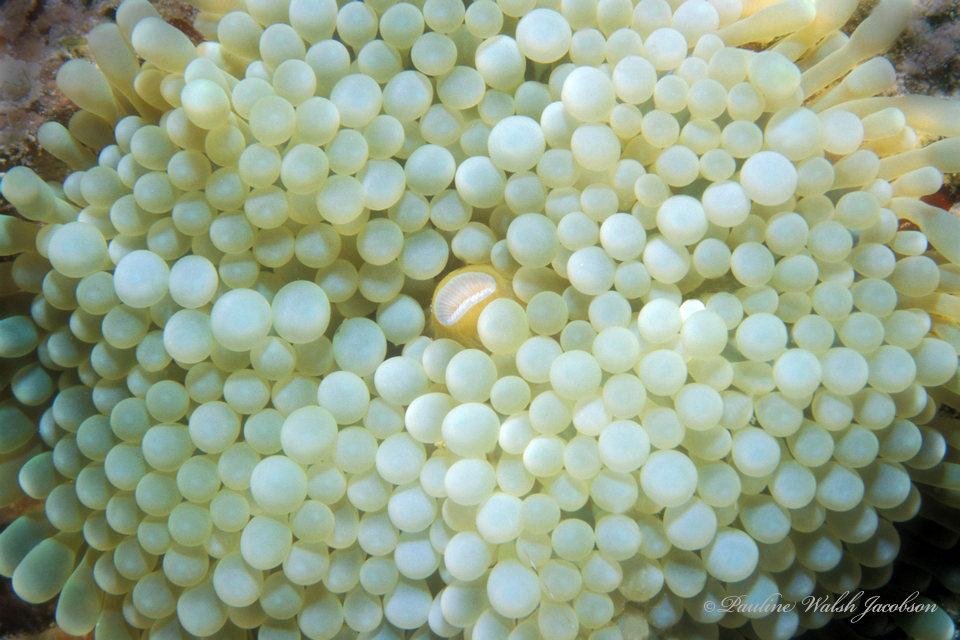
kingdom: Animalia
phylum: Cnidaria
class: Anthozoa
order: Corallimorpharia
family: Ricordeidae
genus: Ricordea
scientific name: Ricordea florida
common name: False coral
